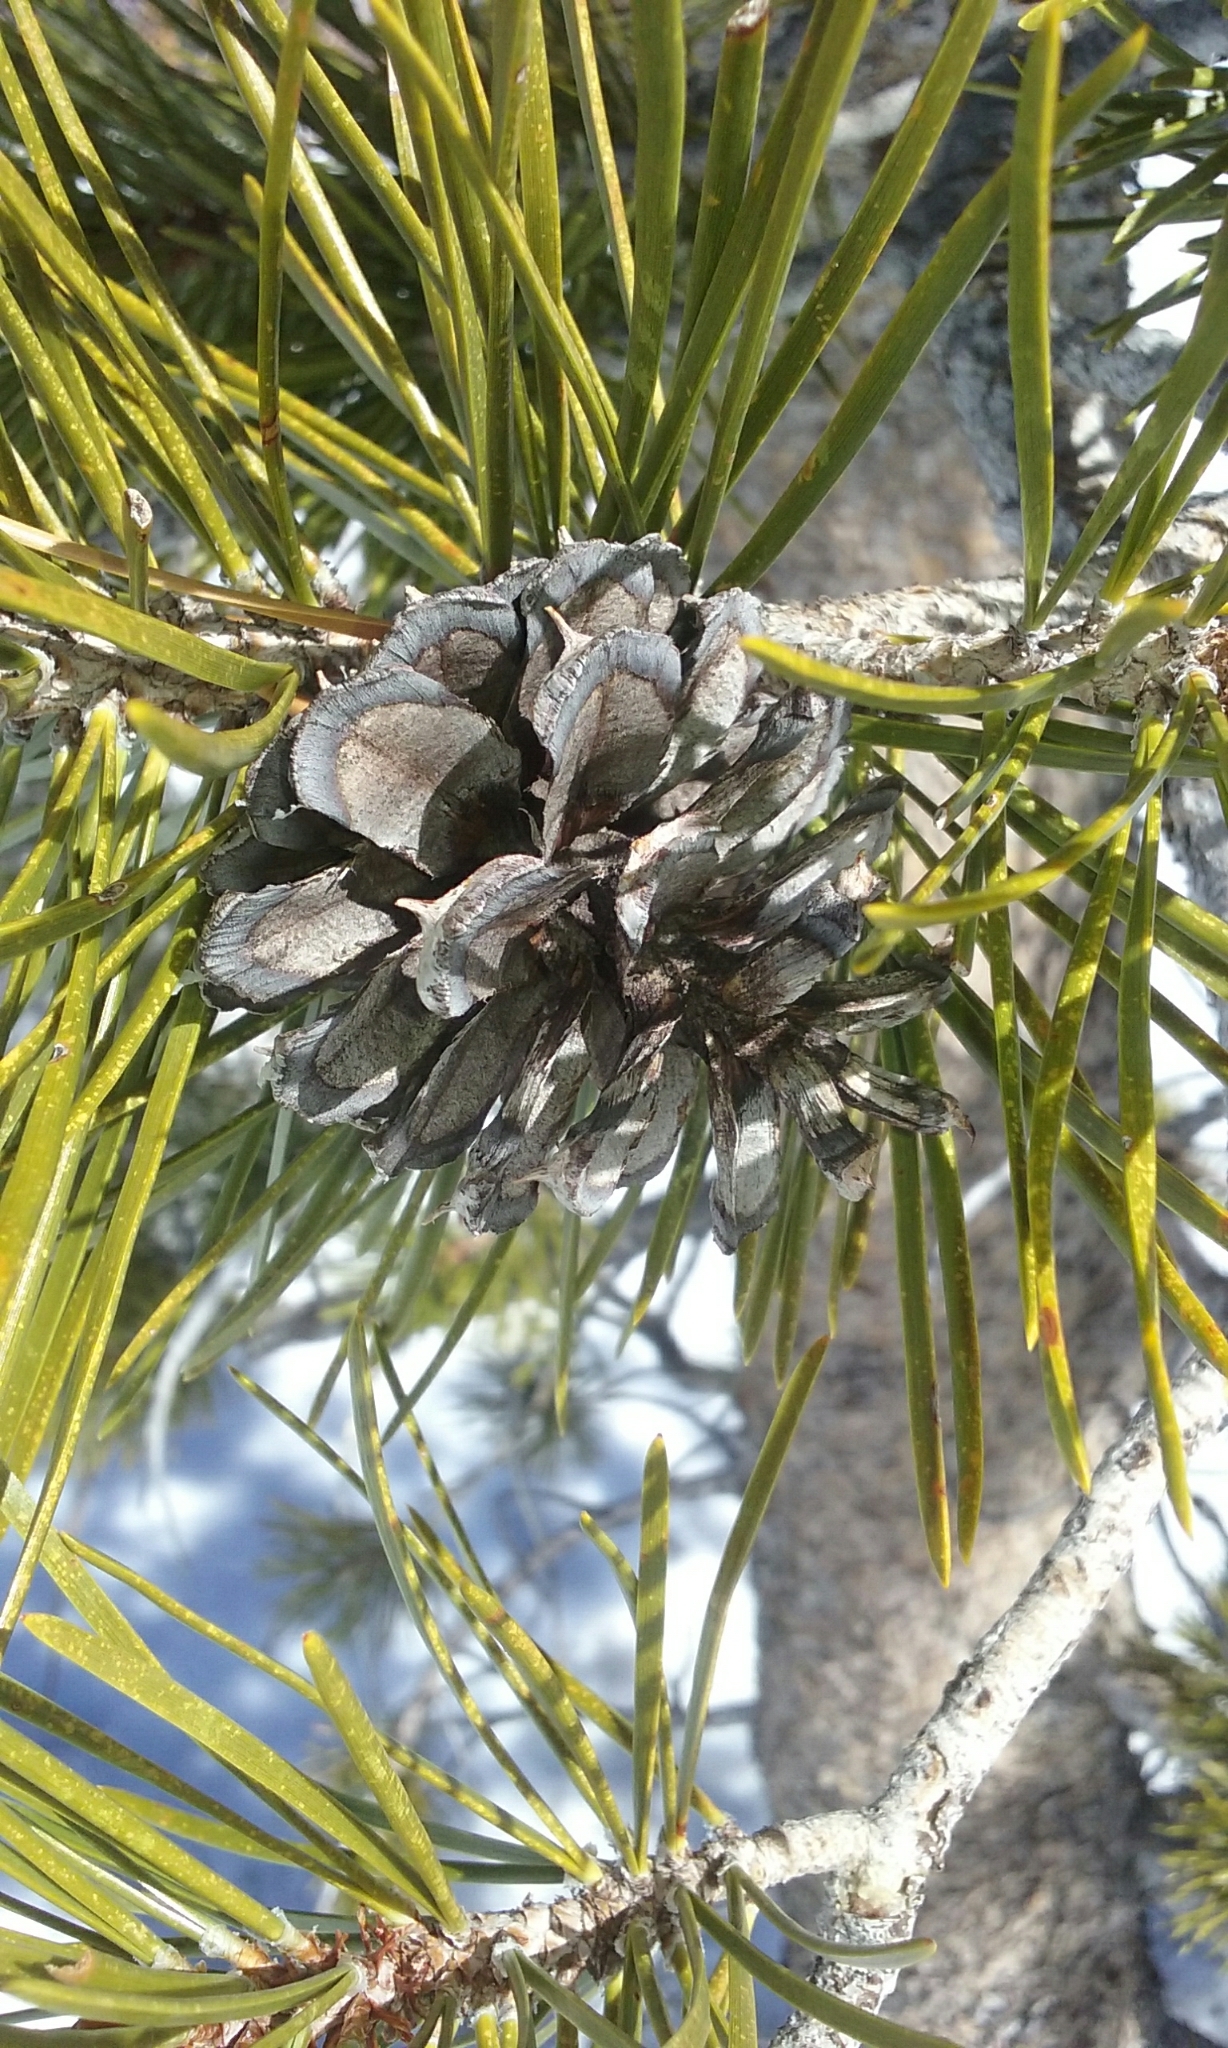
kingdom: Plantae
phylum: Tracheophyta
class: Pinopsida
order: Pinales
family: Pinaceae
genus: Pinus
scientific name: Pinus contorta
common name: Lodgepole pine
